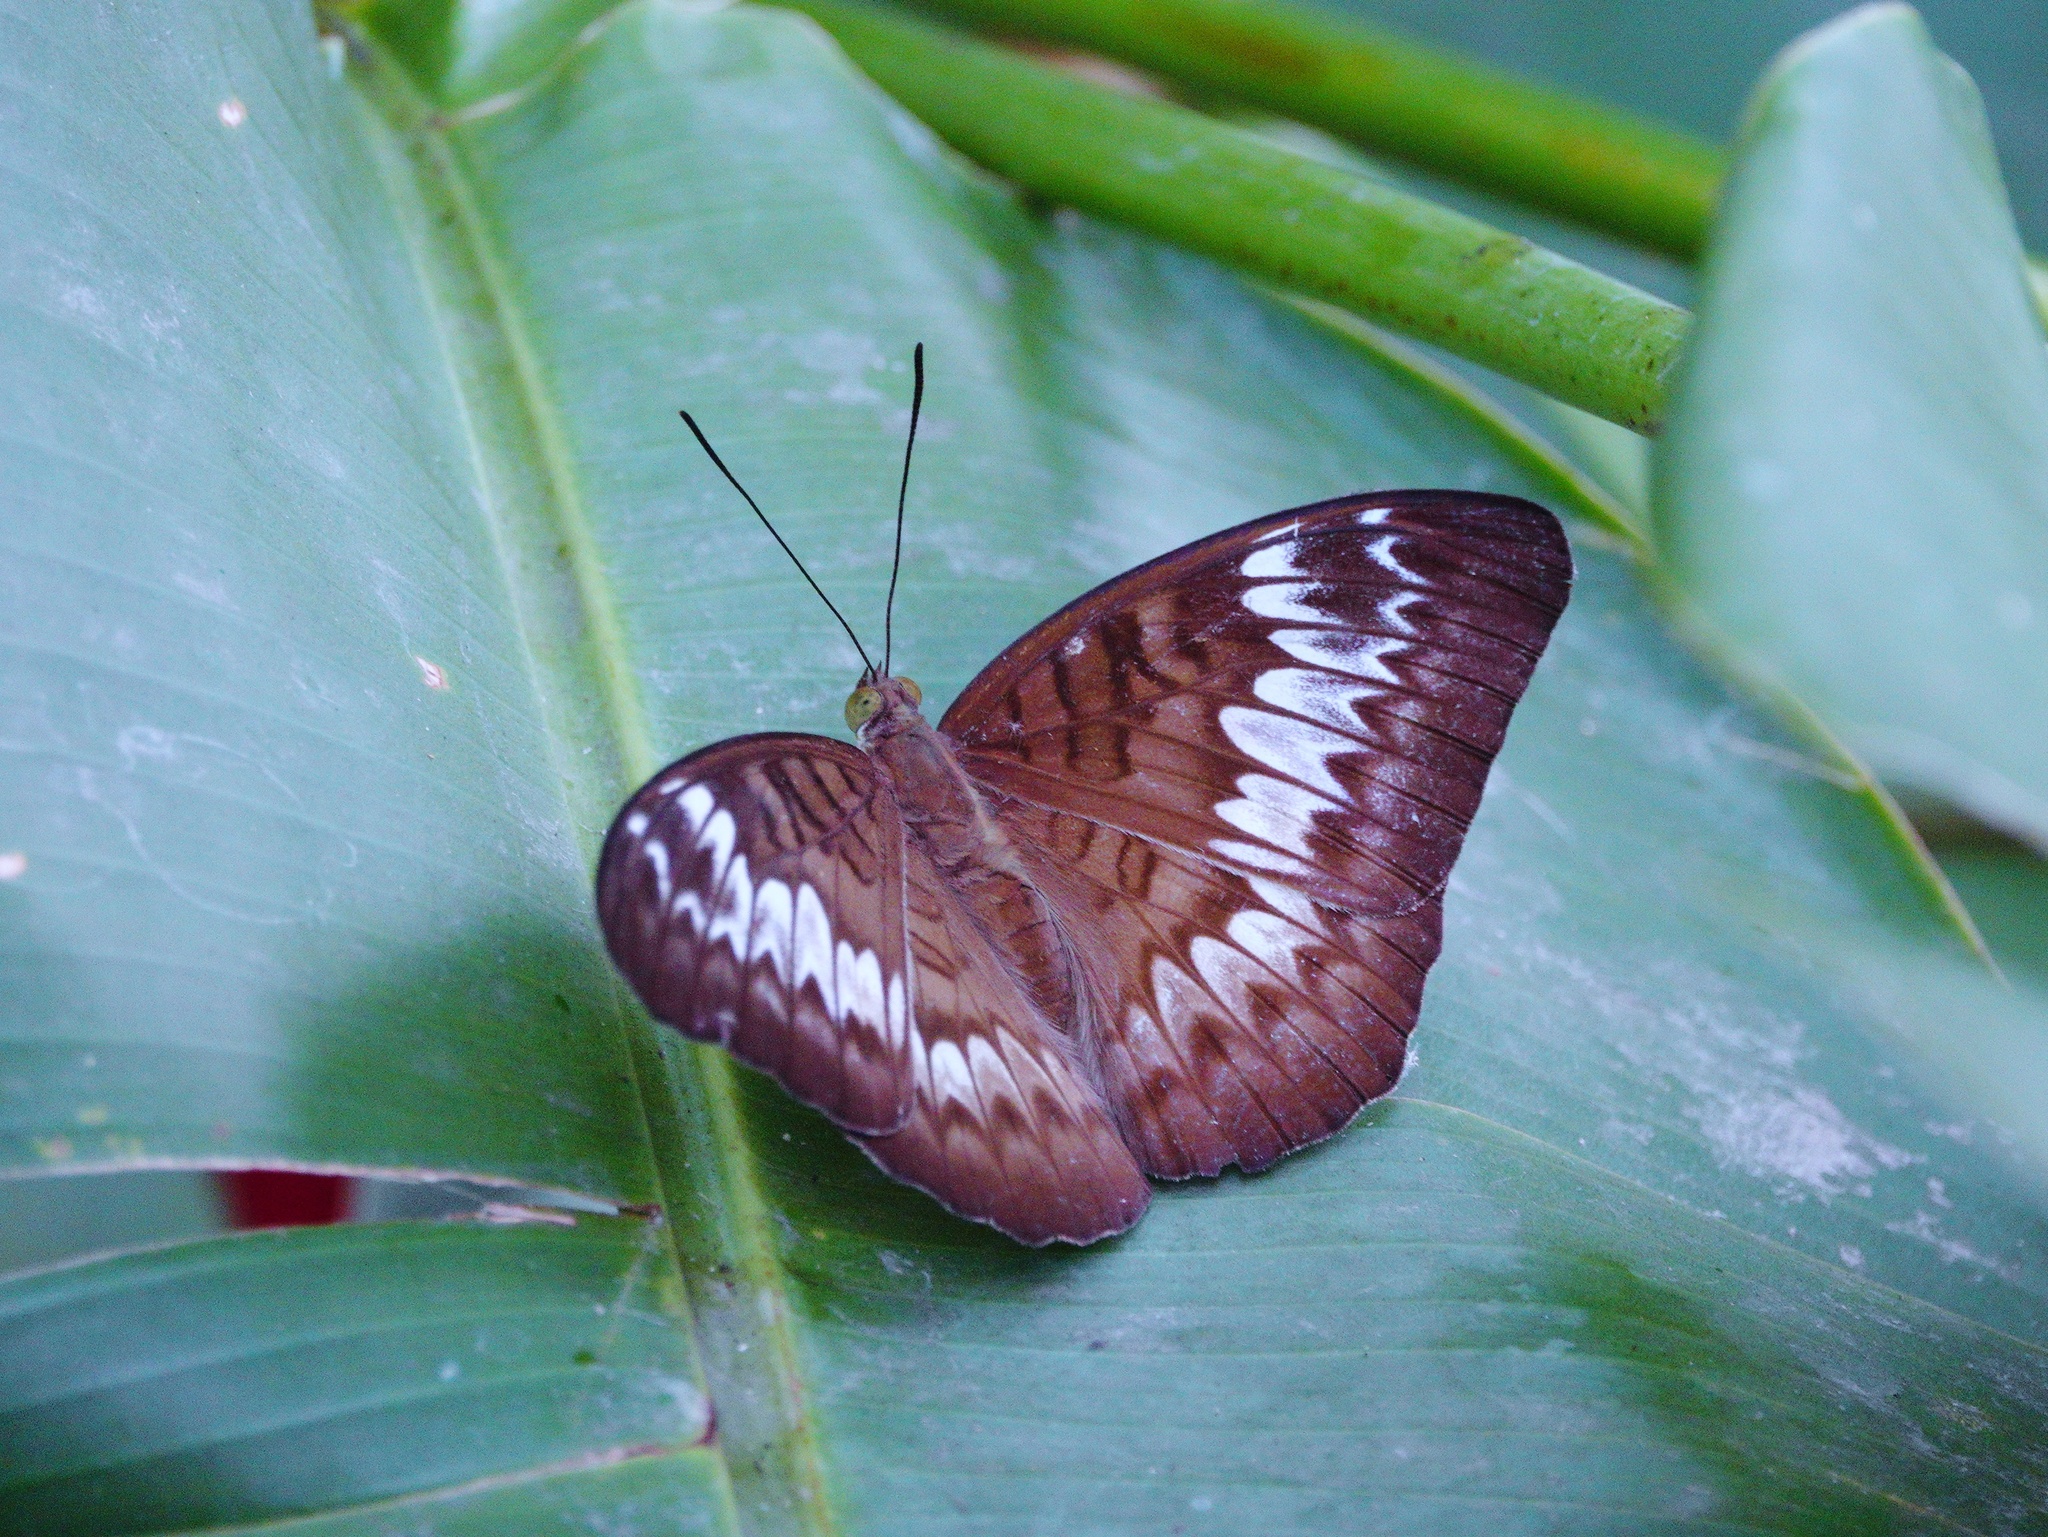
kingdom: Animalia
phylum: Arthropoda
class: Insecta
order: Lepidoptera
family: Nymphalidae
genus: Tanaecia
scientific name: Tanaecia pelea
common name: Malay viscount
